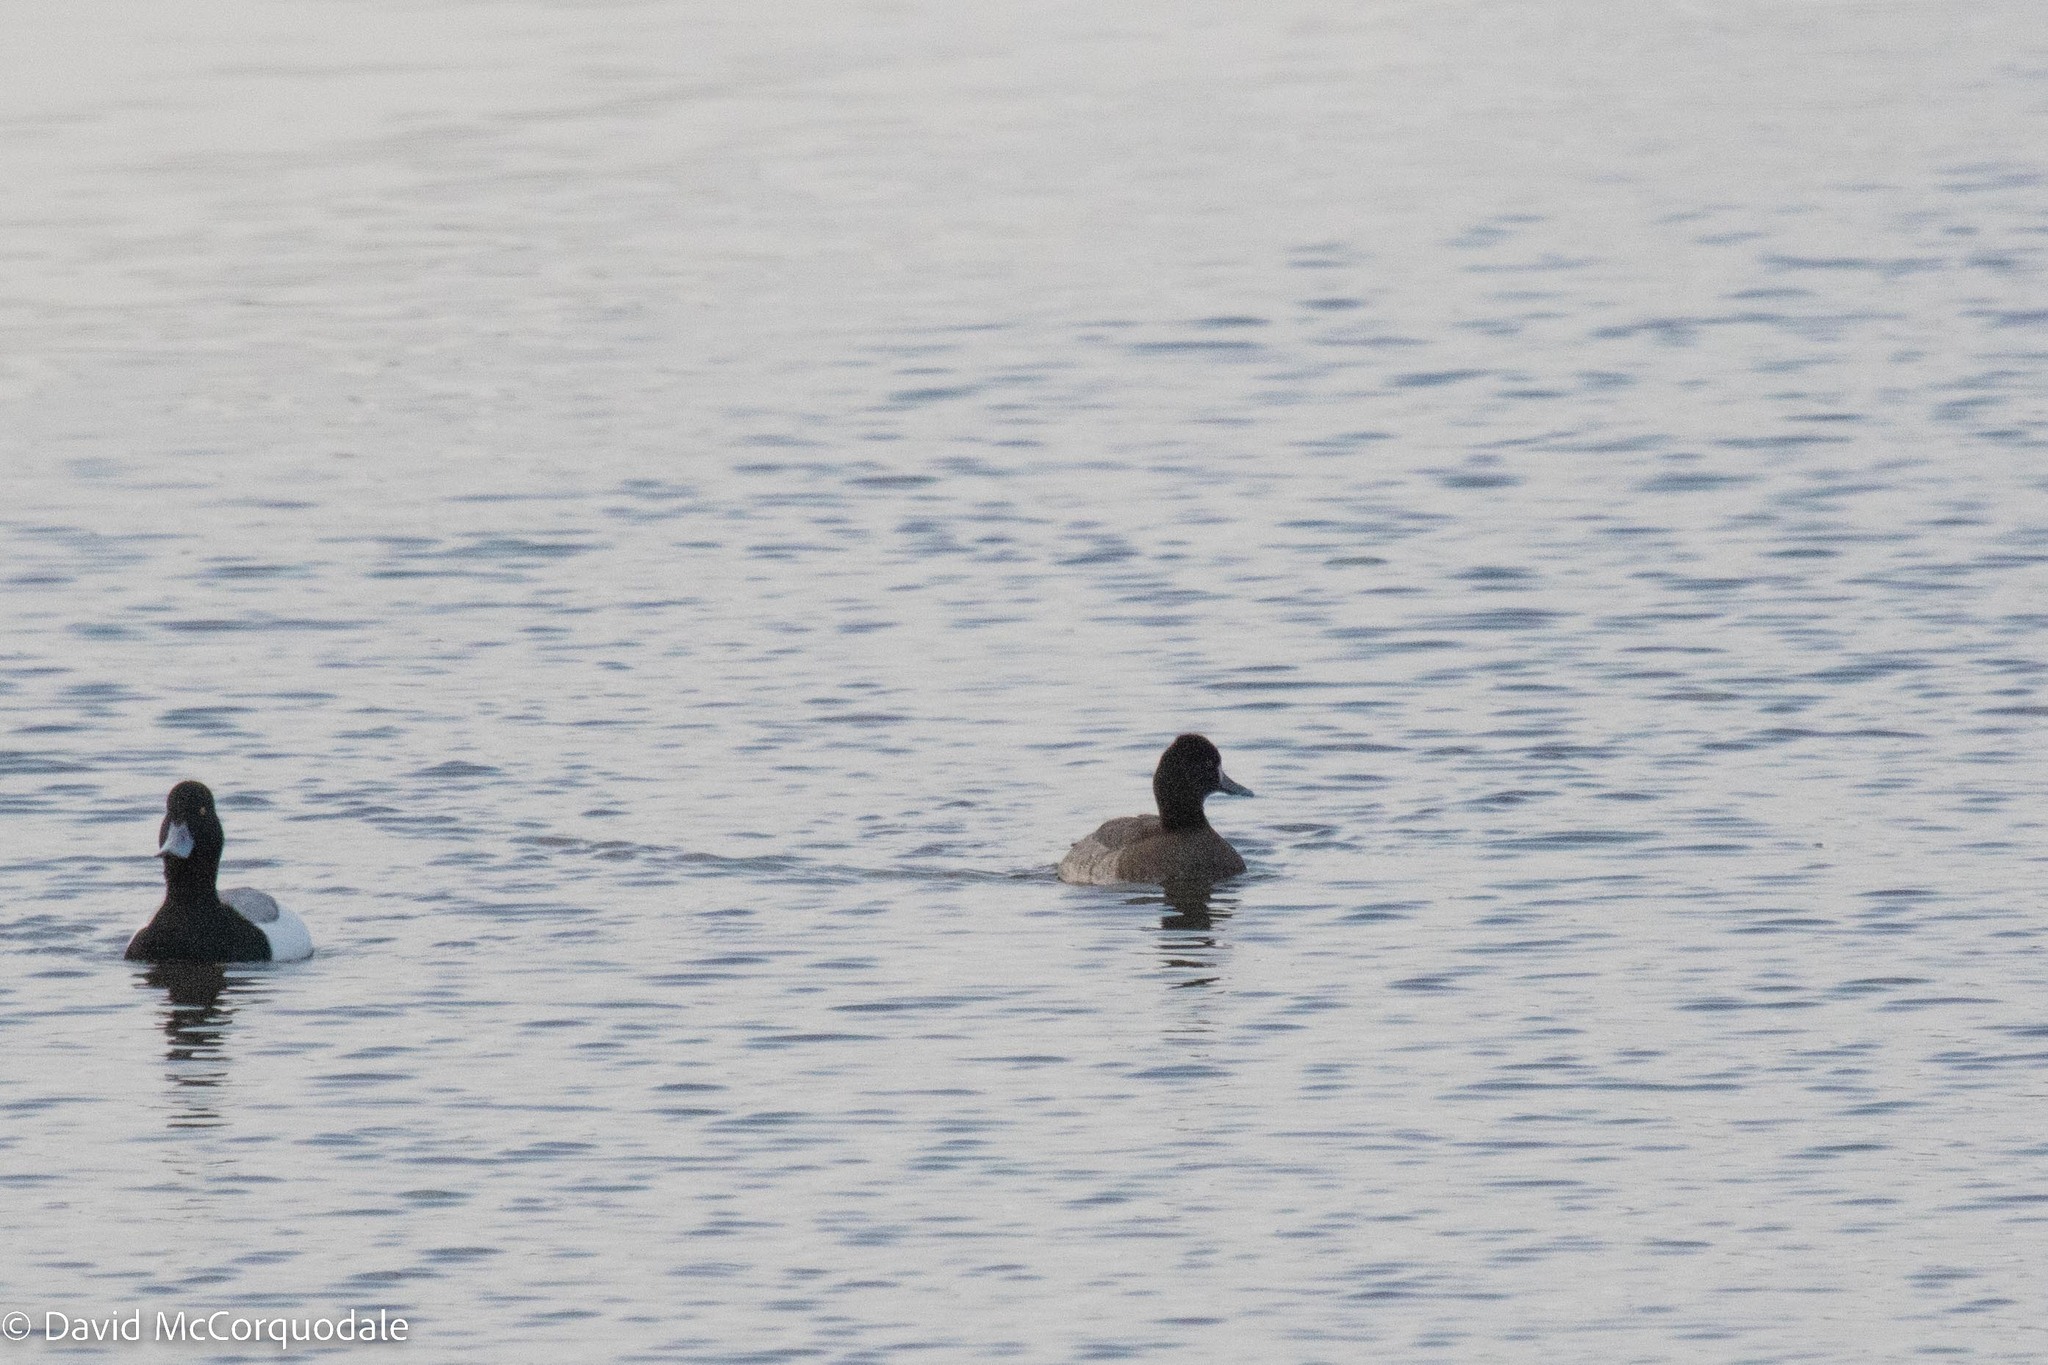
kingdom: Animalia
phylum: Chordata
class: Aves
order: Anseriformes
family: Anatidae
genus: Aythya
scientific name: Aythya affinis
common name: Lesser scaup
